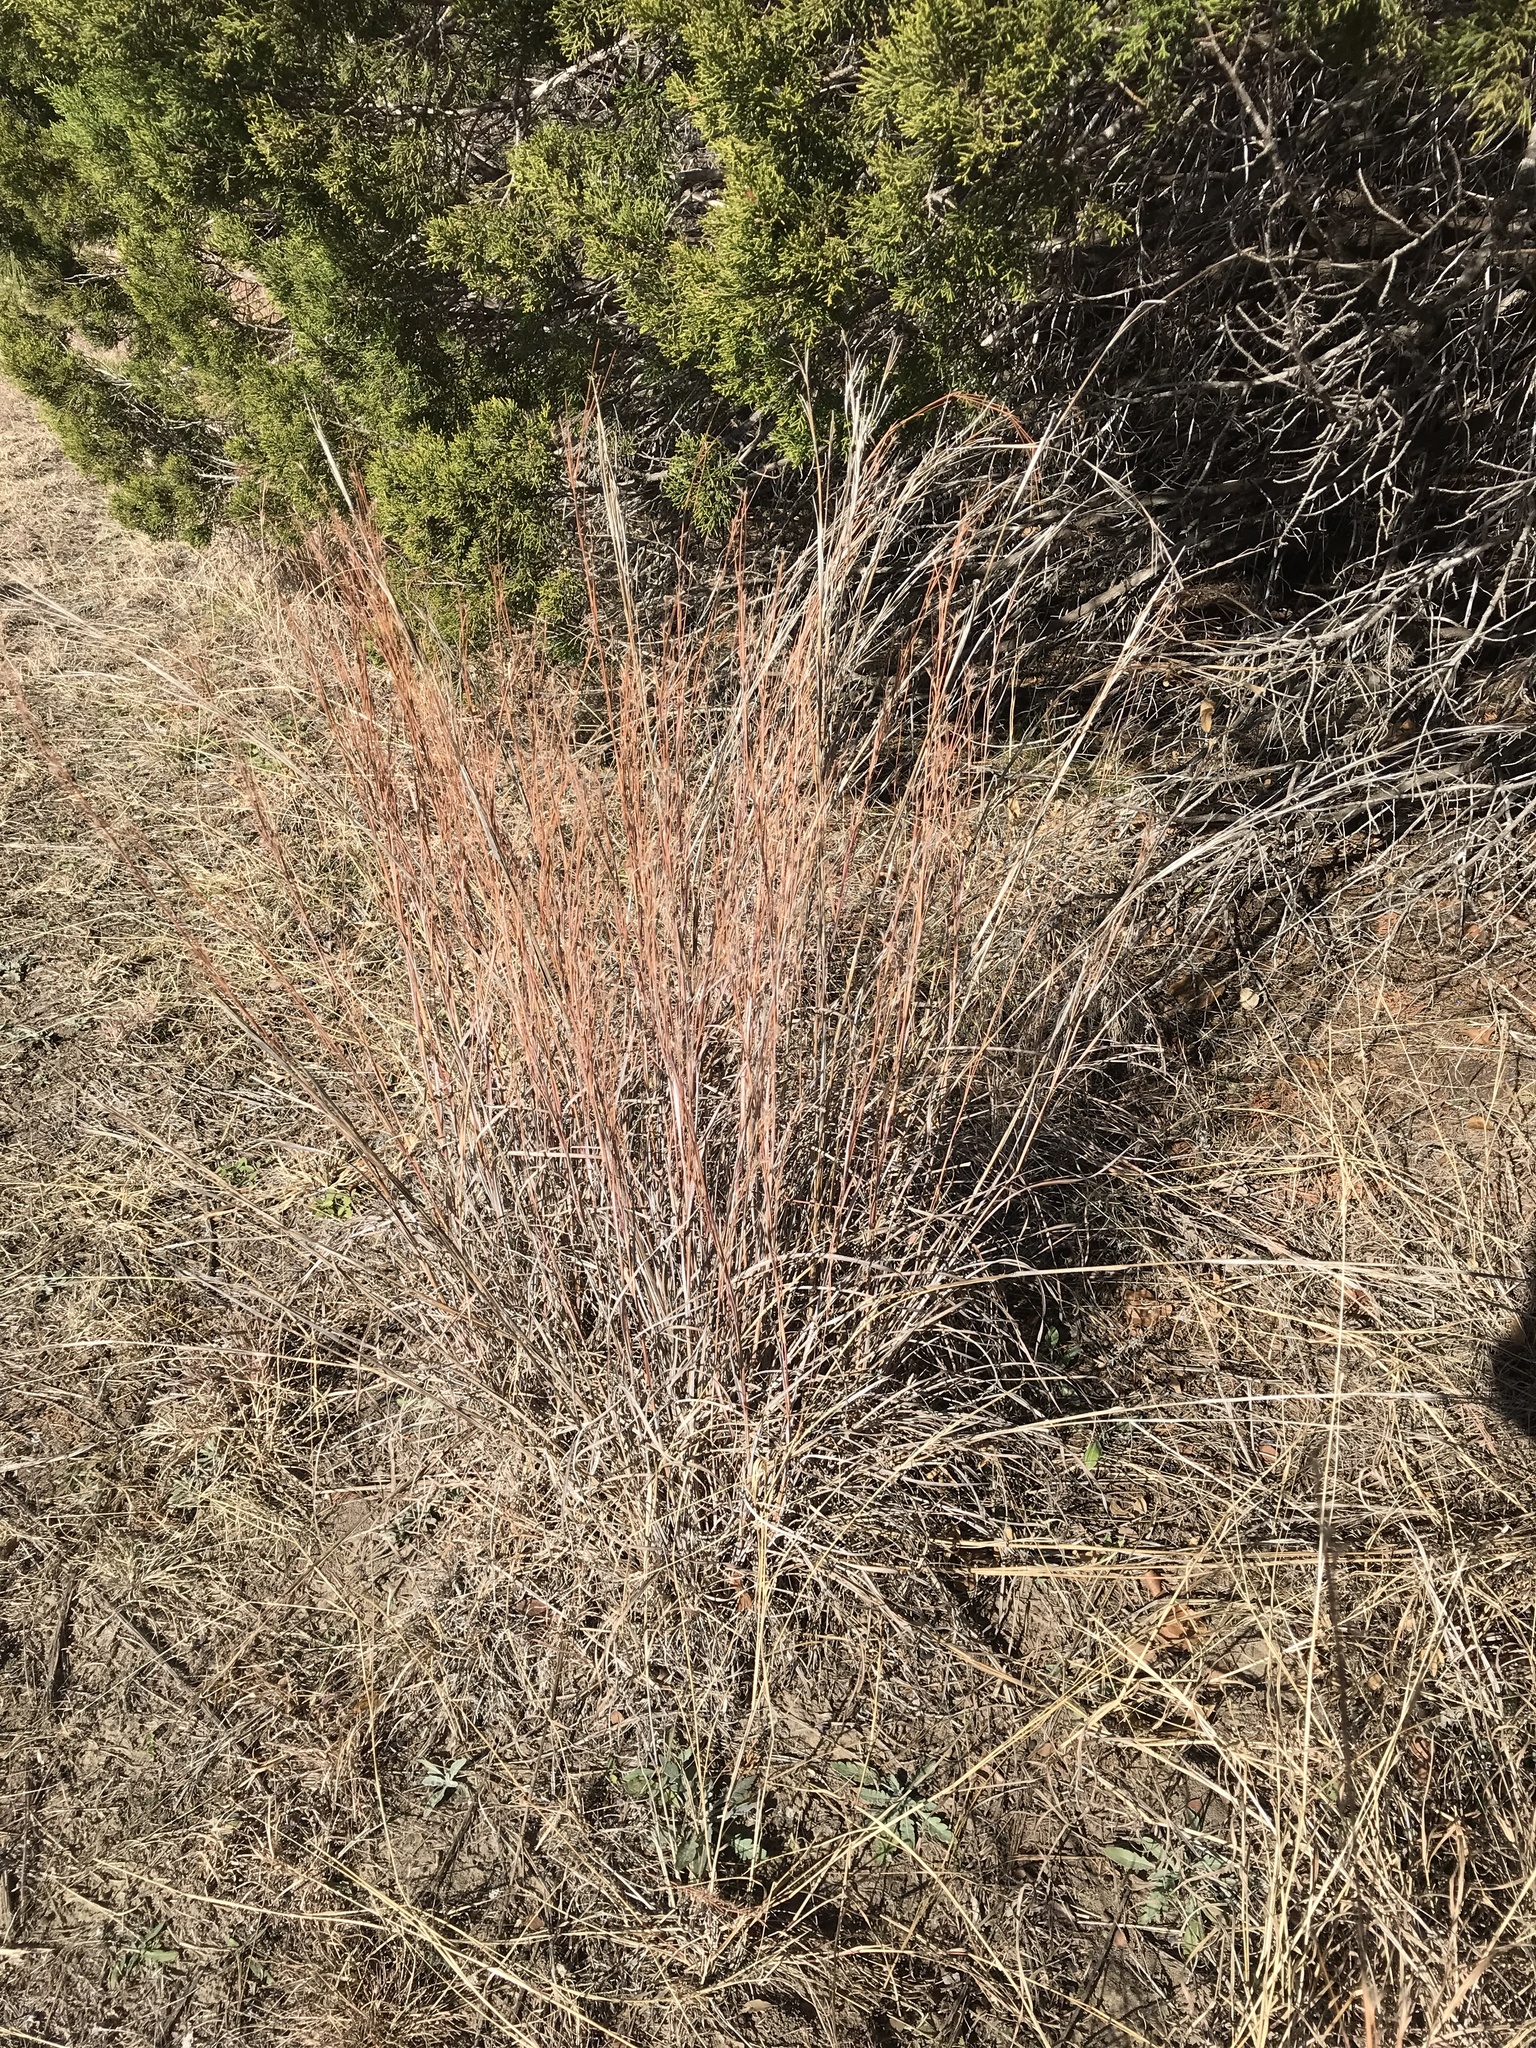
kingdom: Plantae
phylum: Tracheophyta
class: Liliopsida
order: Poales
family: Poaceae
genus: Schizachyrium
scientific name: Schizachyrium scoparium
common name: Little bluestem
